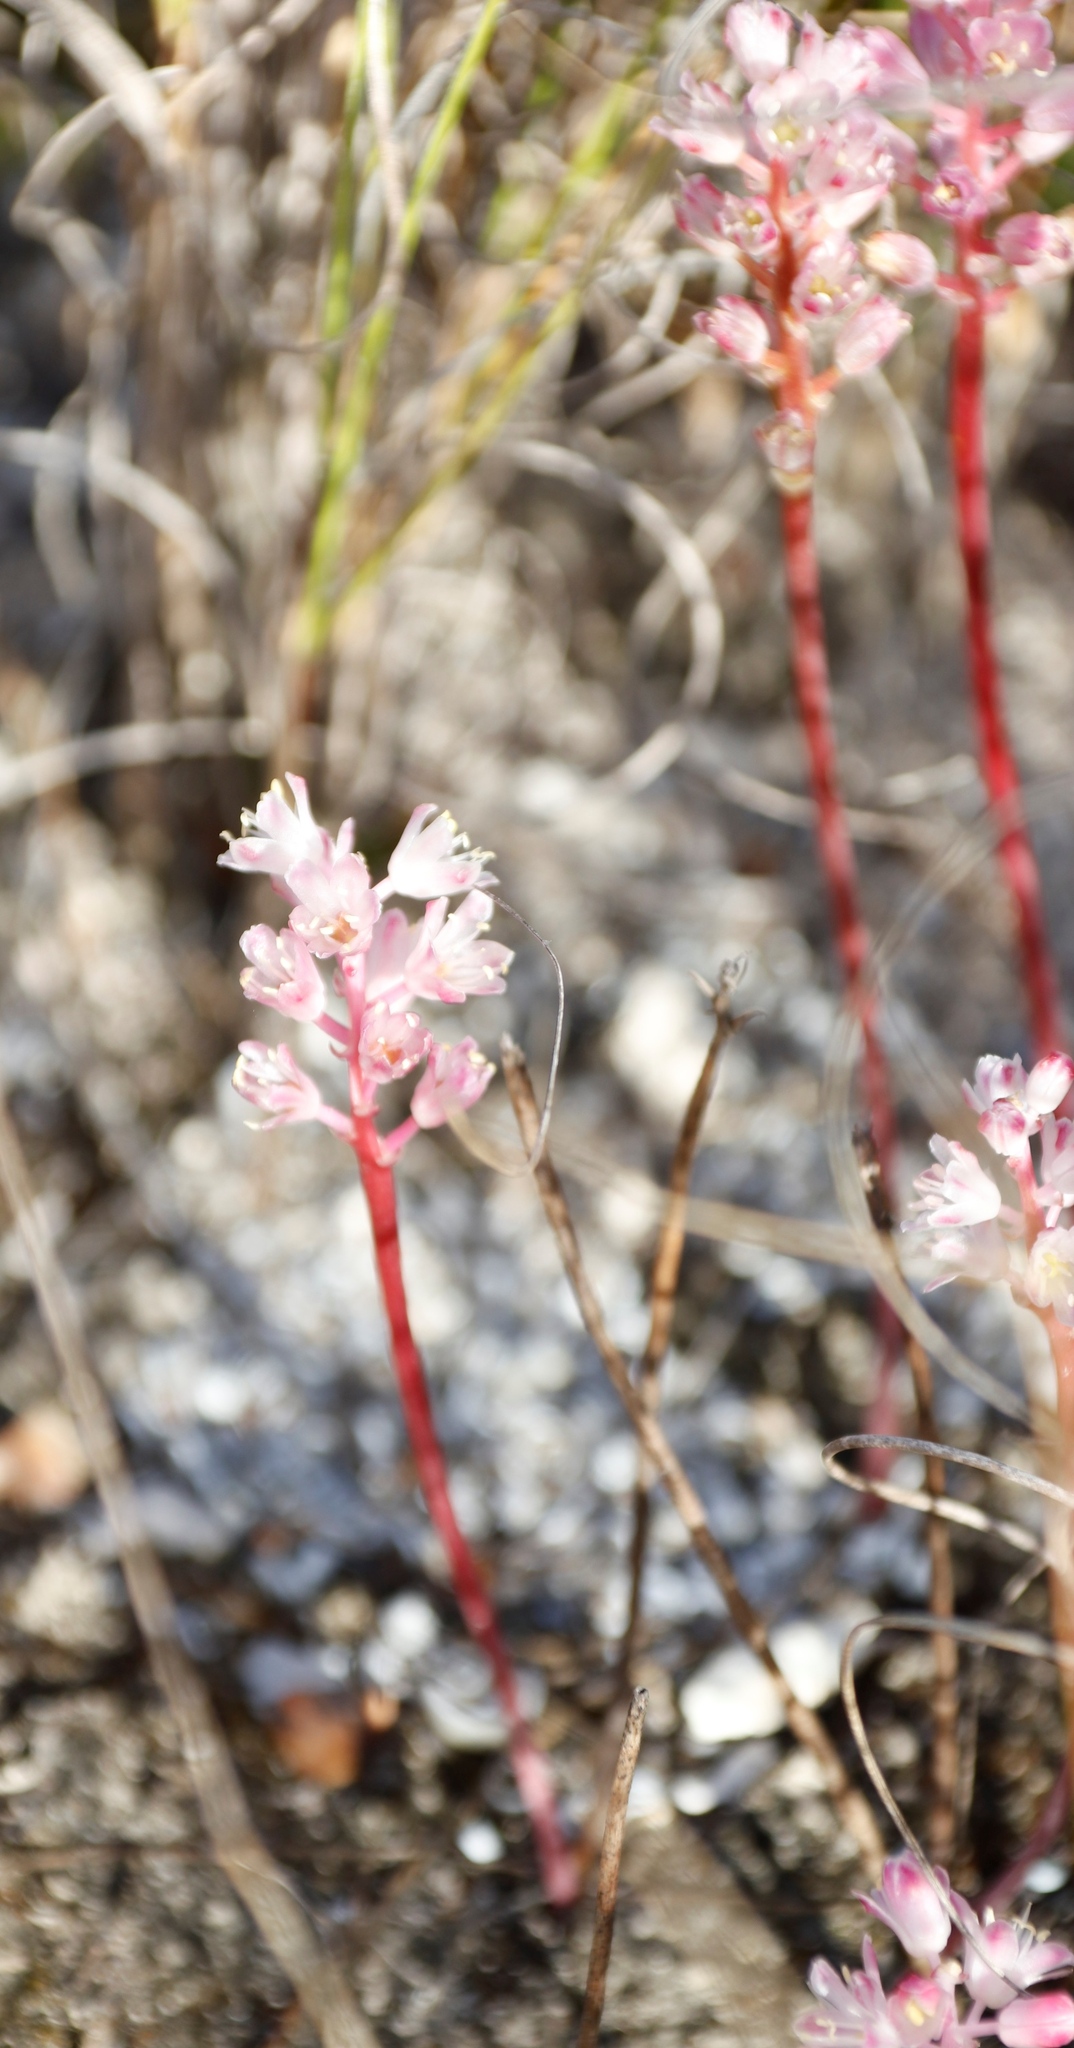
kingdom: Plantae
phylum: Tracheophyta
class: Liliopsida
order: Asparagales
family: Asparagaceae
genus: Lachenalia
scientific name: Lachenalia barbarae
